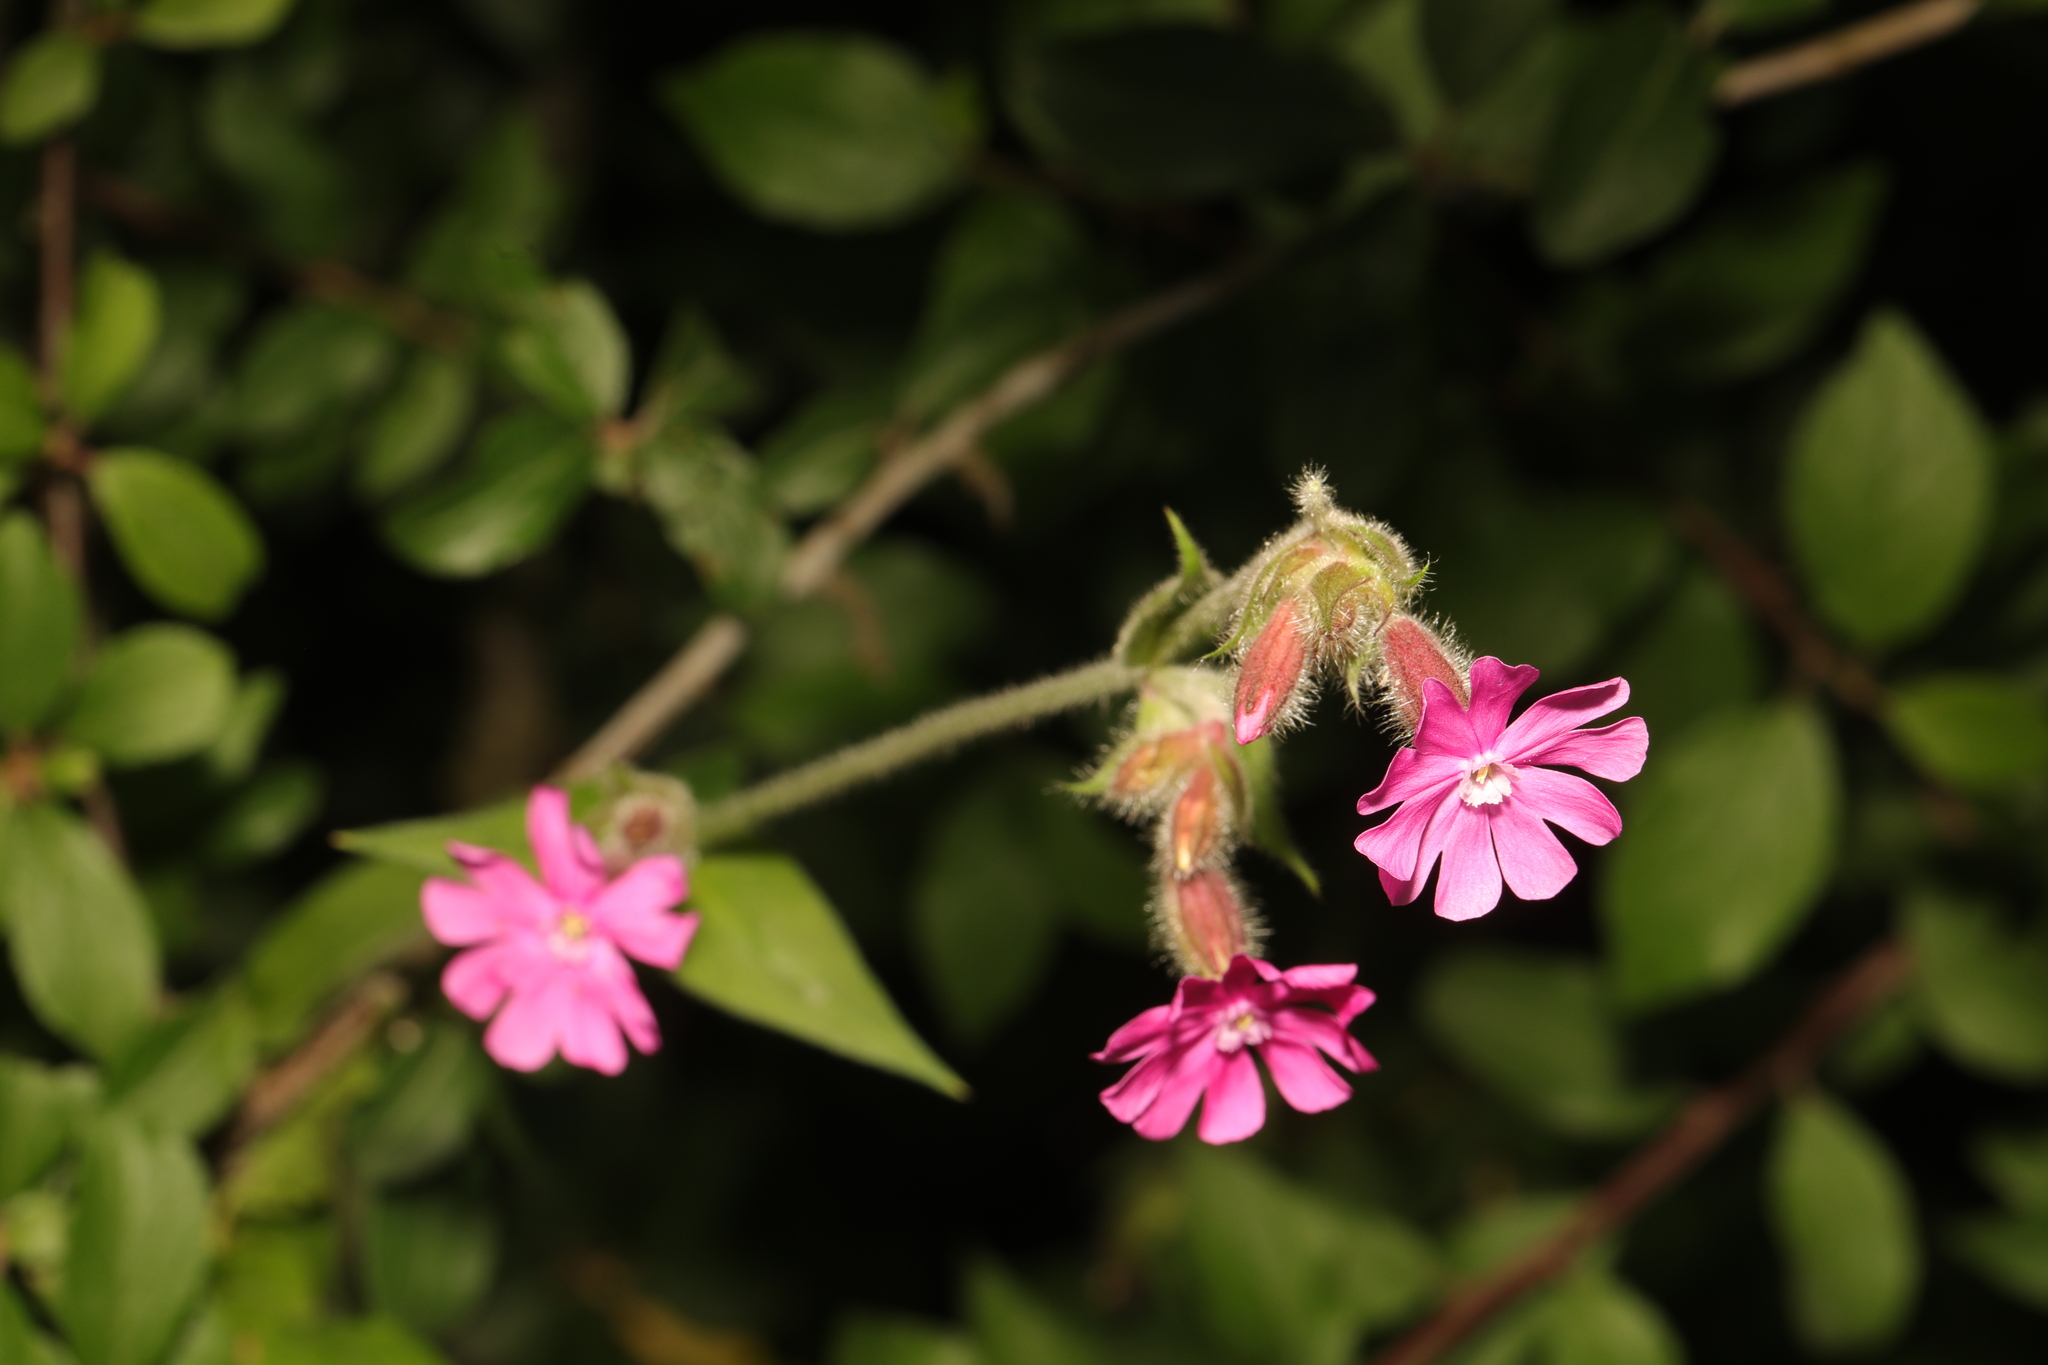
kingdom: Plantae
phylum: Tracheophyta
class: Magnoliopsida
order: Caryophyllales
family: Caryophyllaceae
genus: Silene
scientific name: Silene dioica
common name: Red campion
